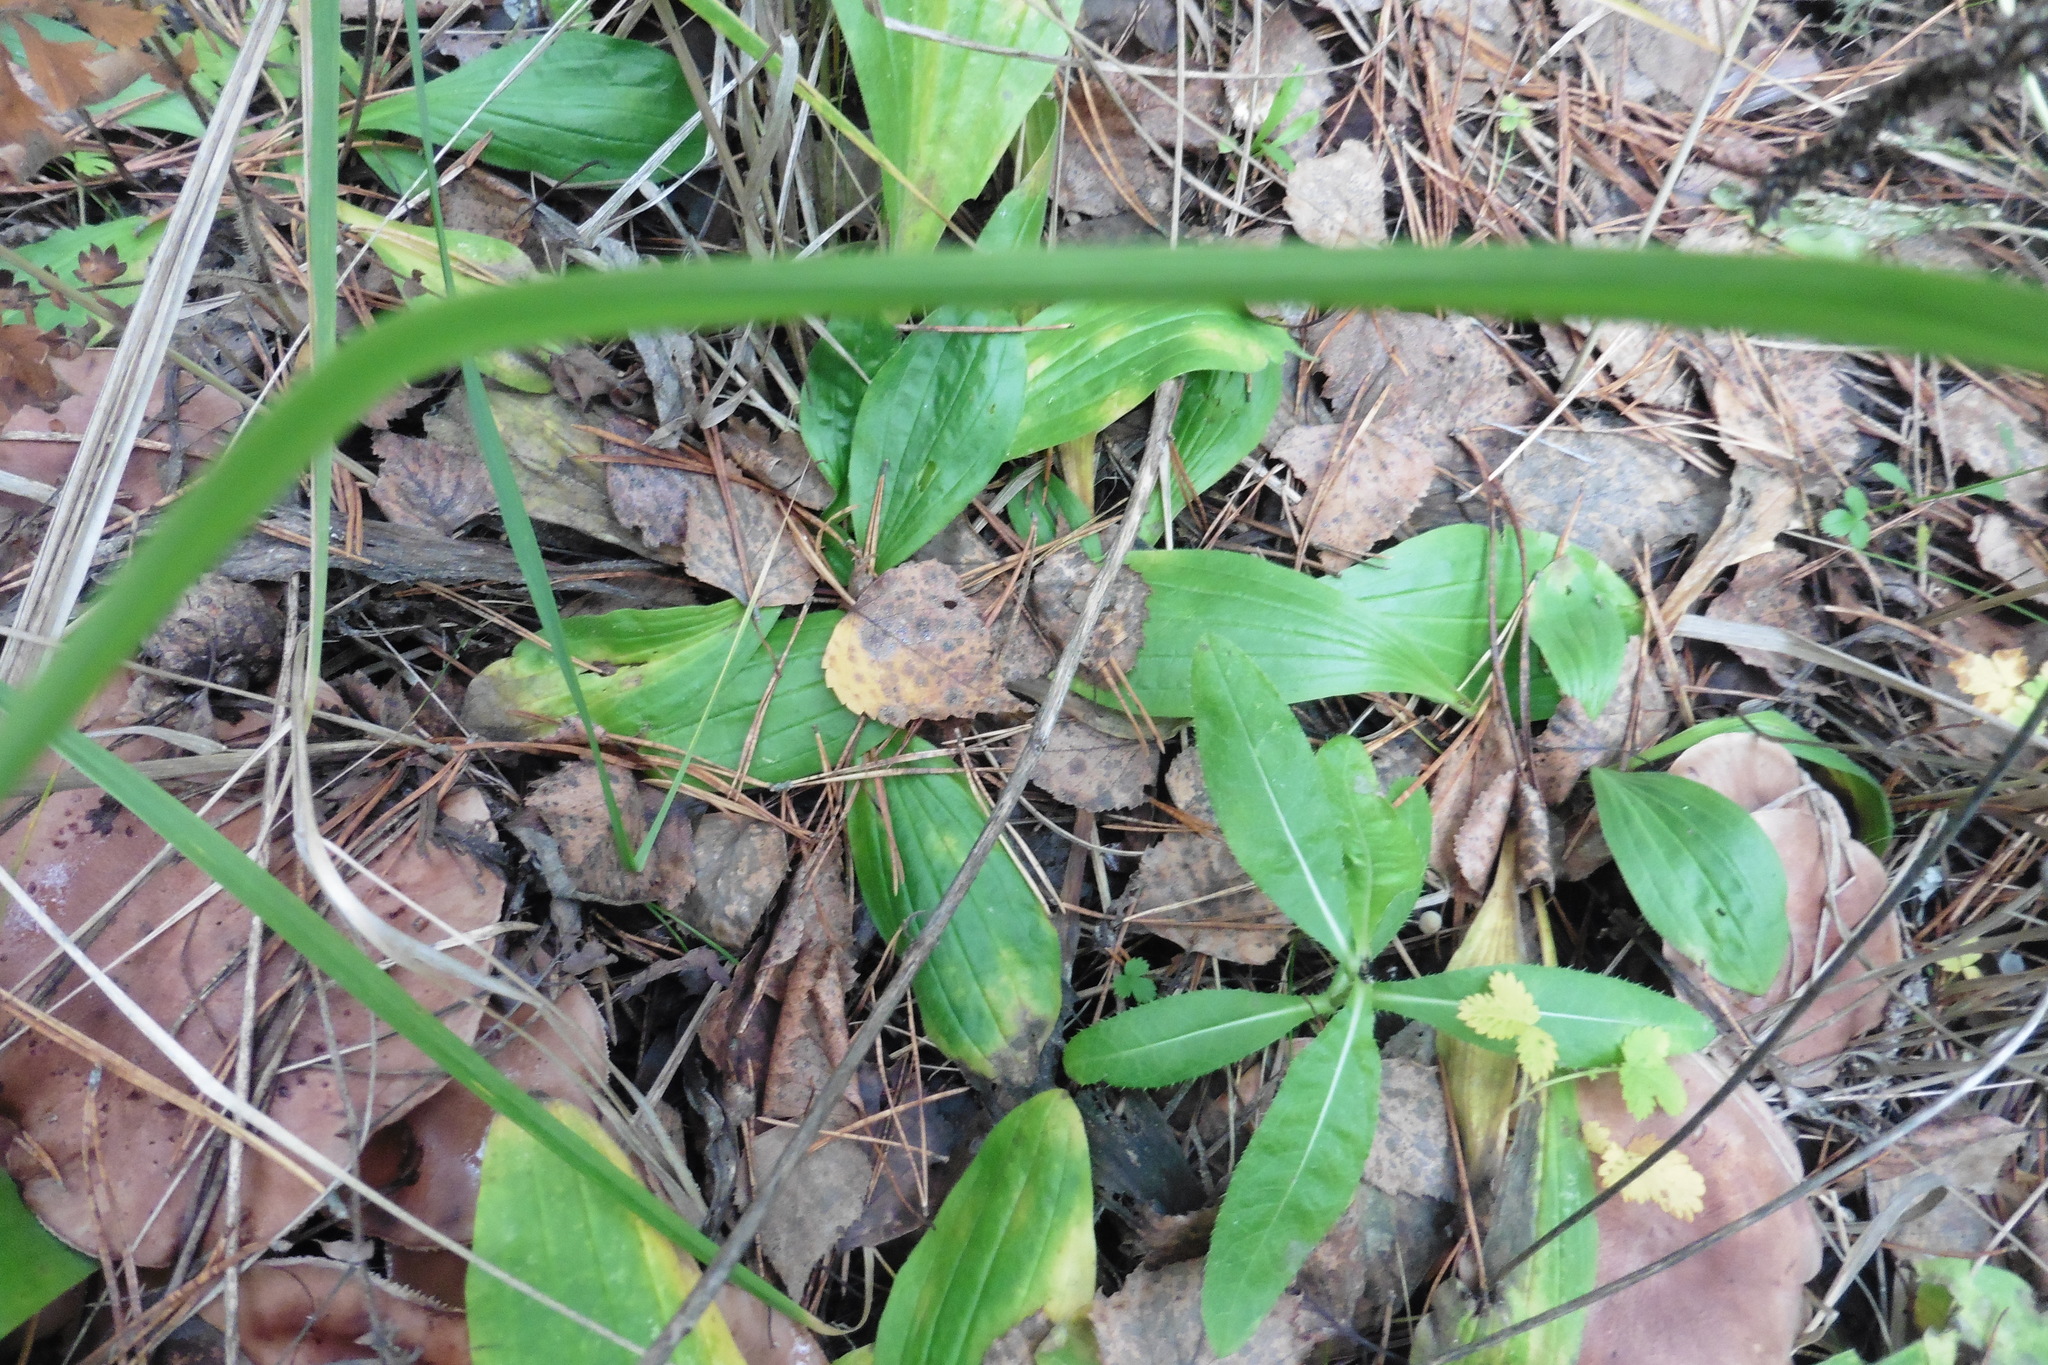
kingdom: Plantae
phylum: Tracheophyta
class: Magnoliopsida
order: Lamiales
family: Plantaginaceae
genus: Plantago
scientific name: Plantago media
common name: Hoary plantain
